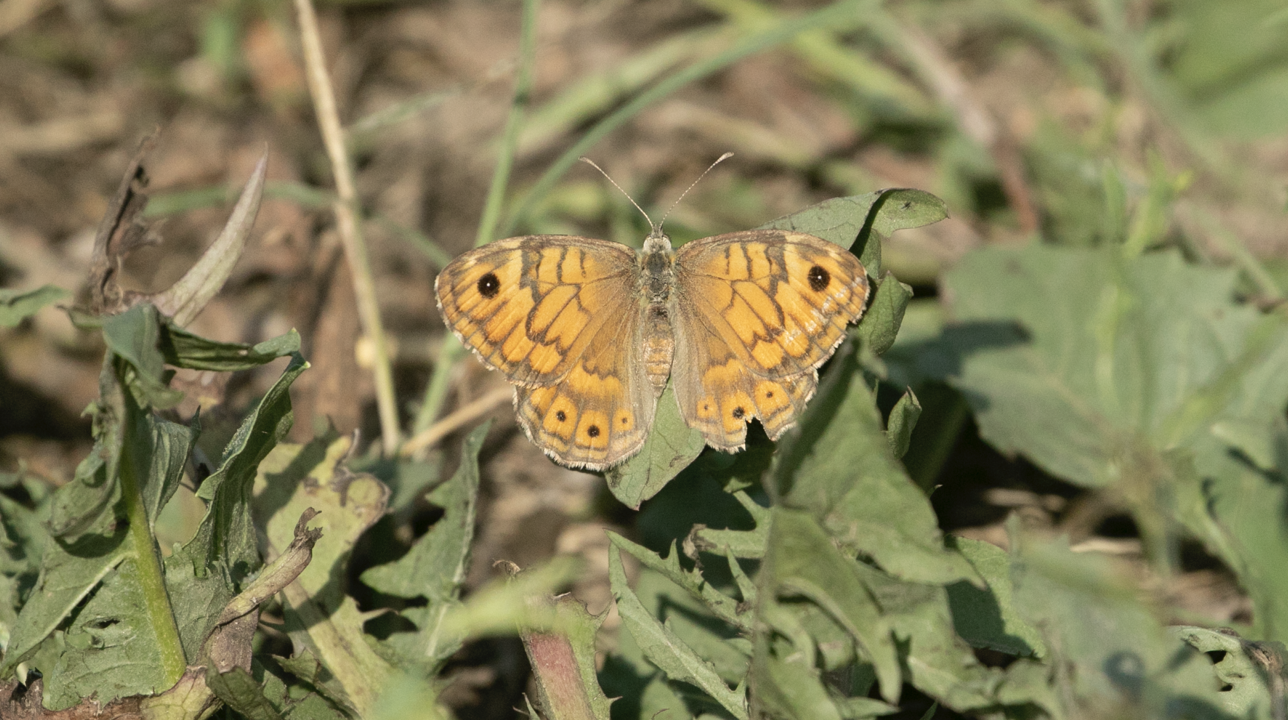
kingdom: Animalia
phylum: Arthropoda
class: Insecta
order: Lepidoptera
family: Nymphalidae
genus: Pararge
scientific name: Pararge Lasiommata megera
